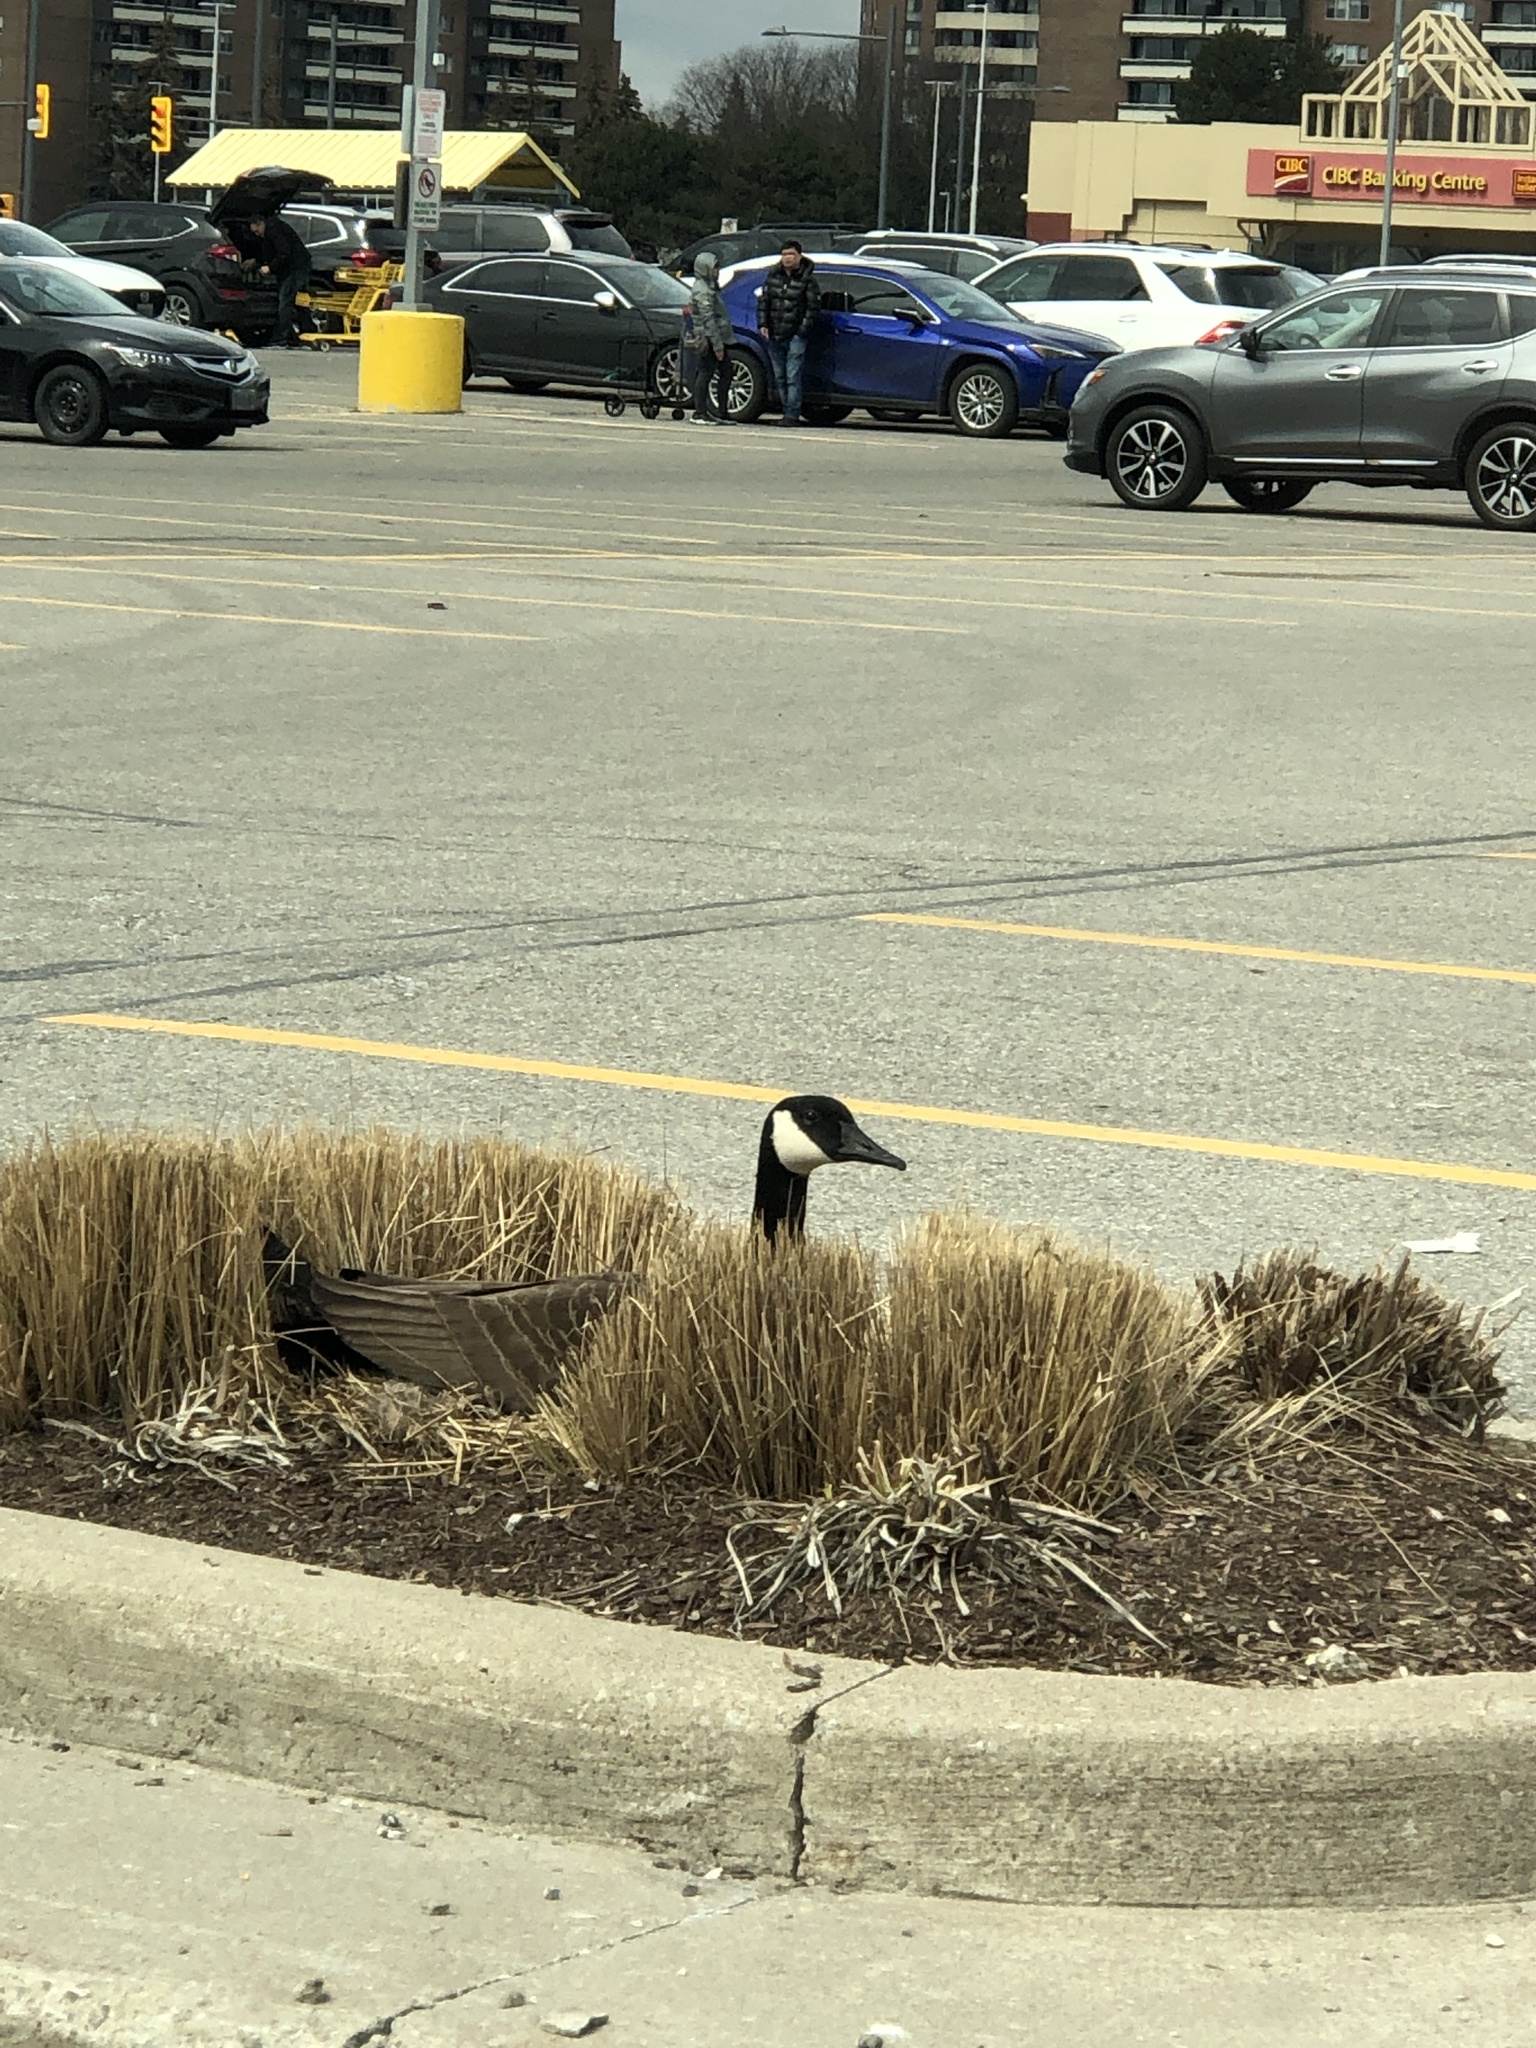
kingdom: Animalia
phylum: Chordata
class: Aves
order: Anseriformes
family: Anatidae
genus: Branta
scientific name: Branta canadensis
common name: Canada goose
